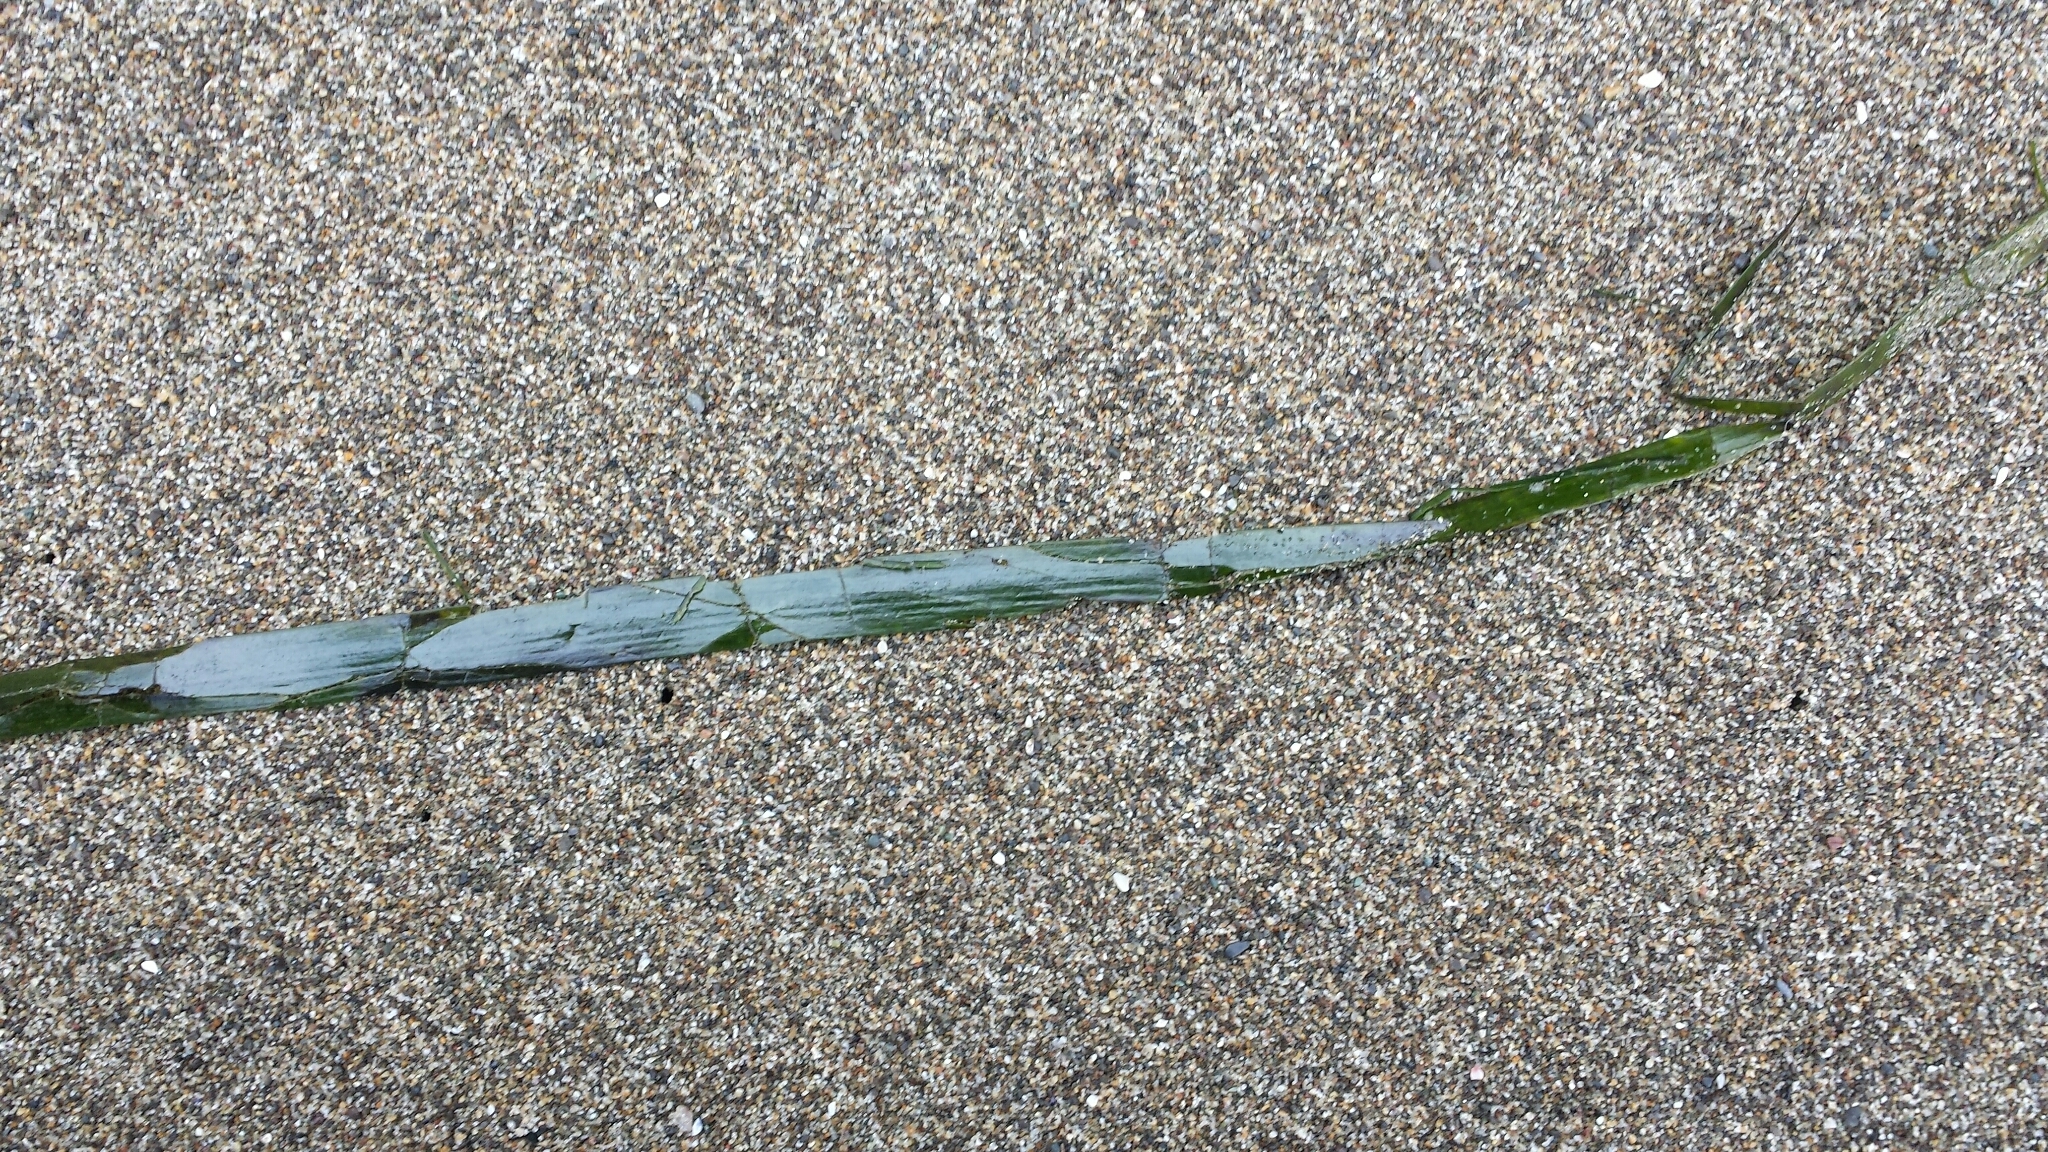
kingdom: Plantae
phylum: Tracheophyta
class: Liliopsida
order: Alismatales
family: Zosteraceae
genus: Zostera
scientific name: Zostera marina
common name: Eelgrass
